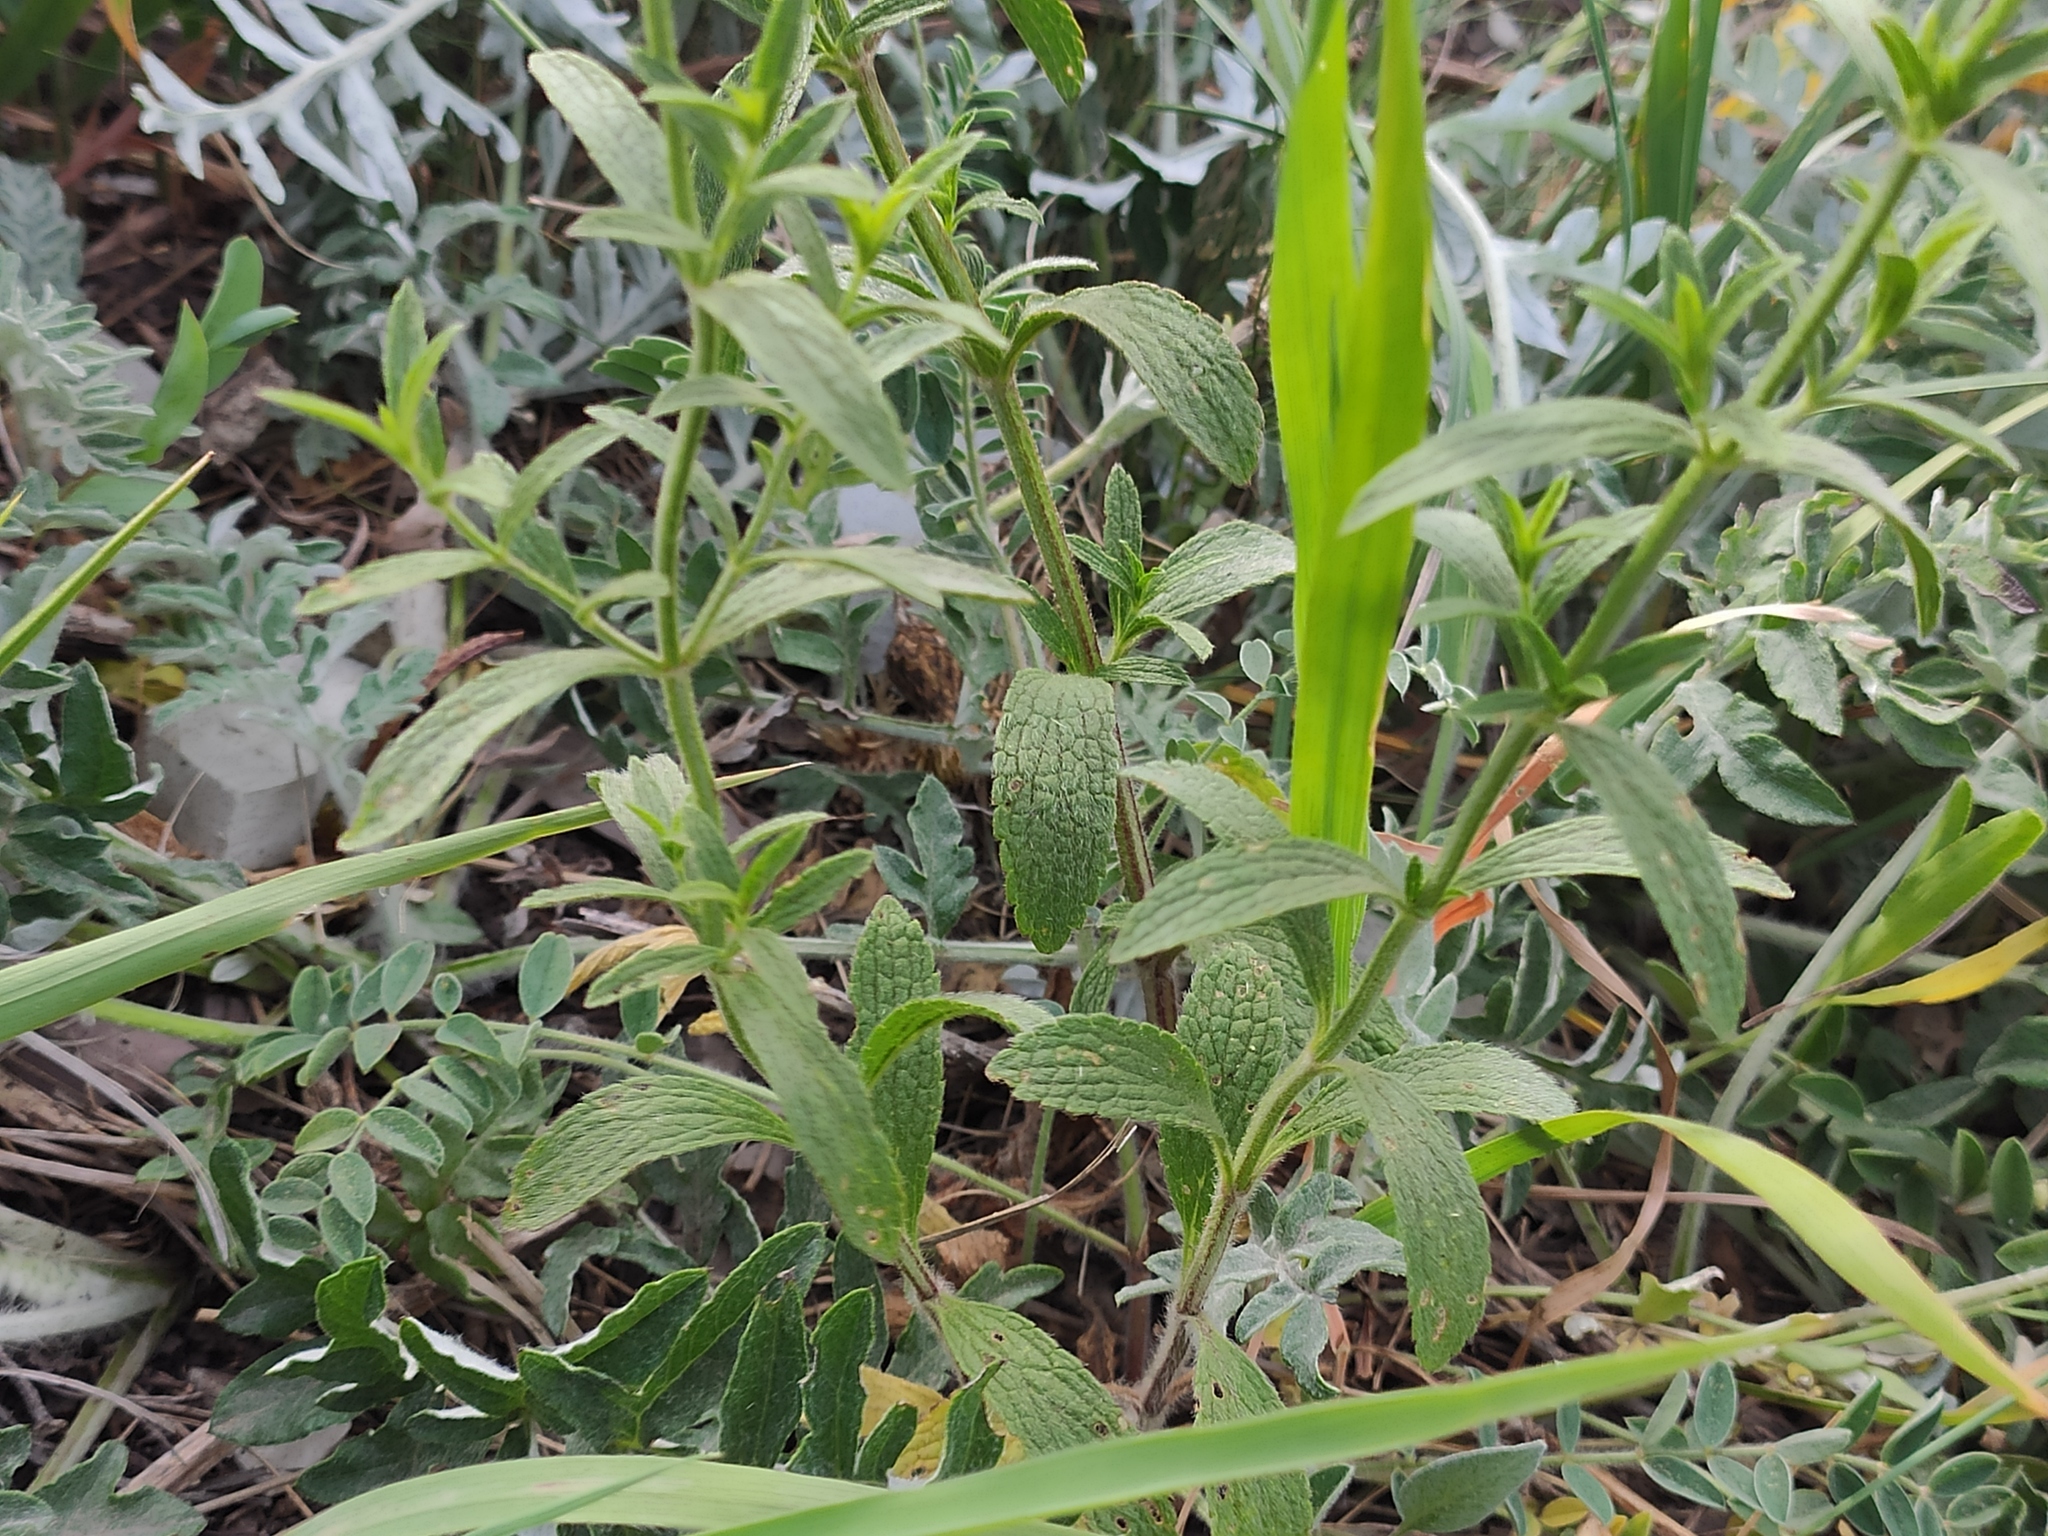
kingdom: Plantae
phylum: Tracheophyta
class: Magnoliopsida
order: Lamiales
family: Lamiaceae
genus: Stachys
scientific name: Stachys atherocalyx
